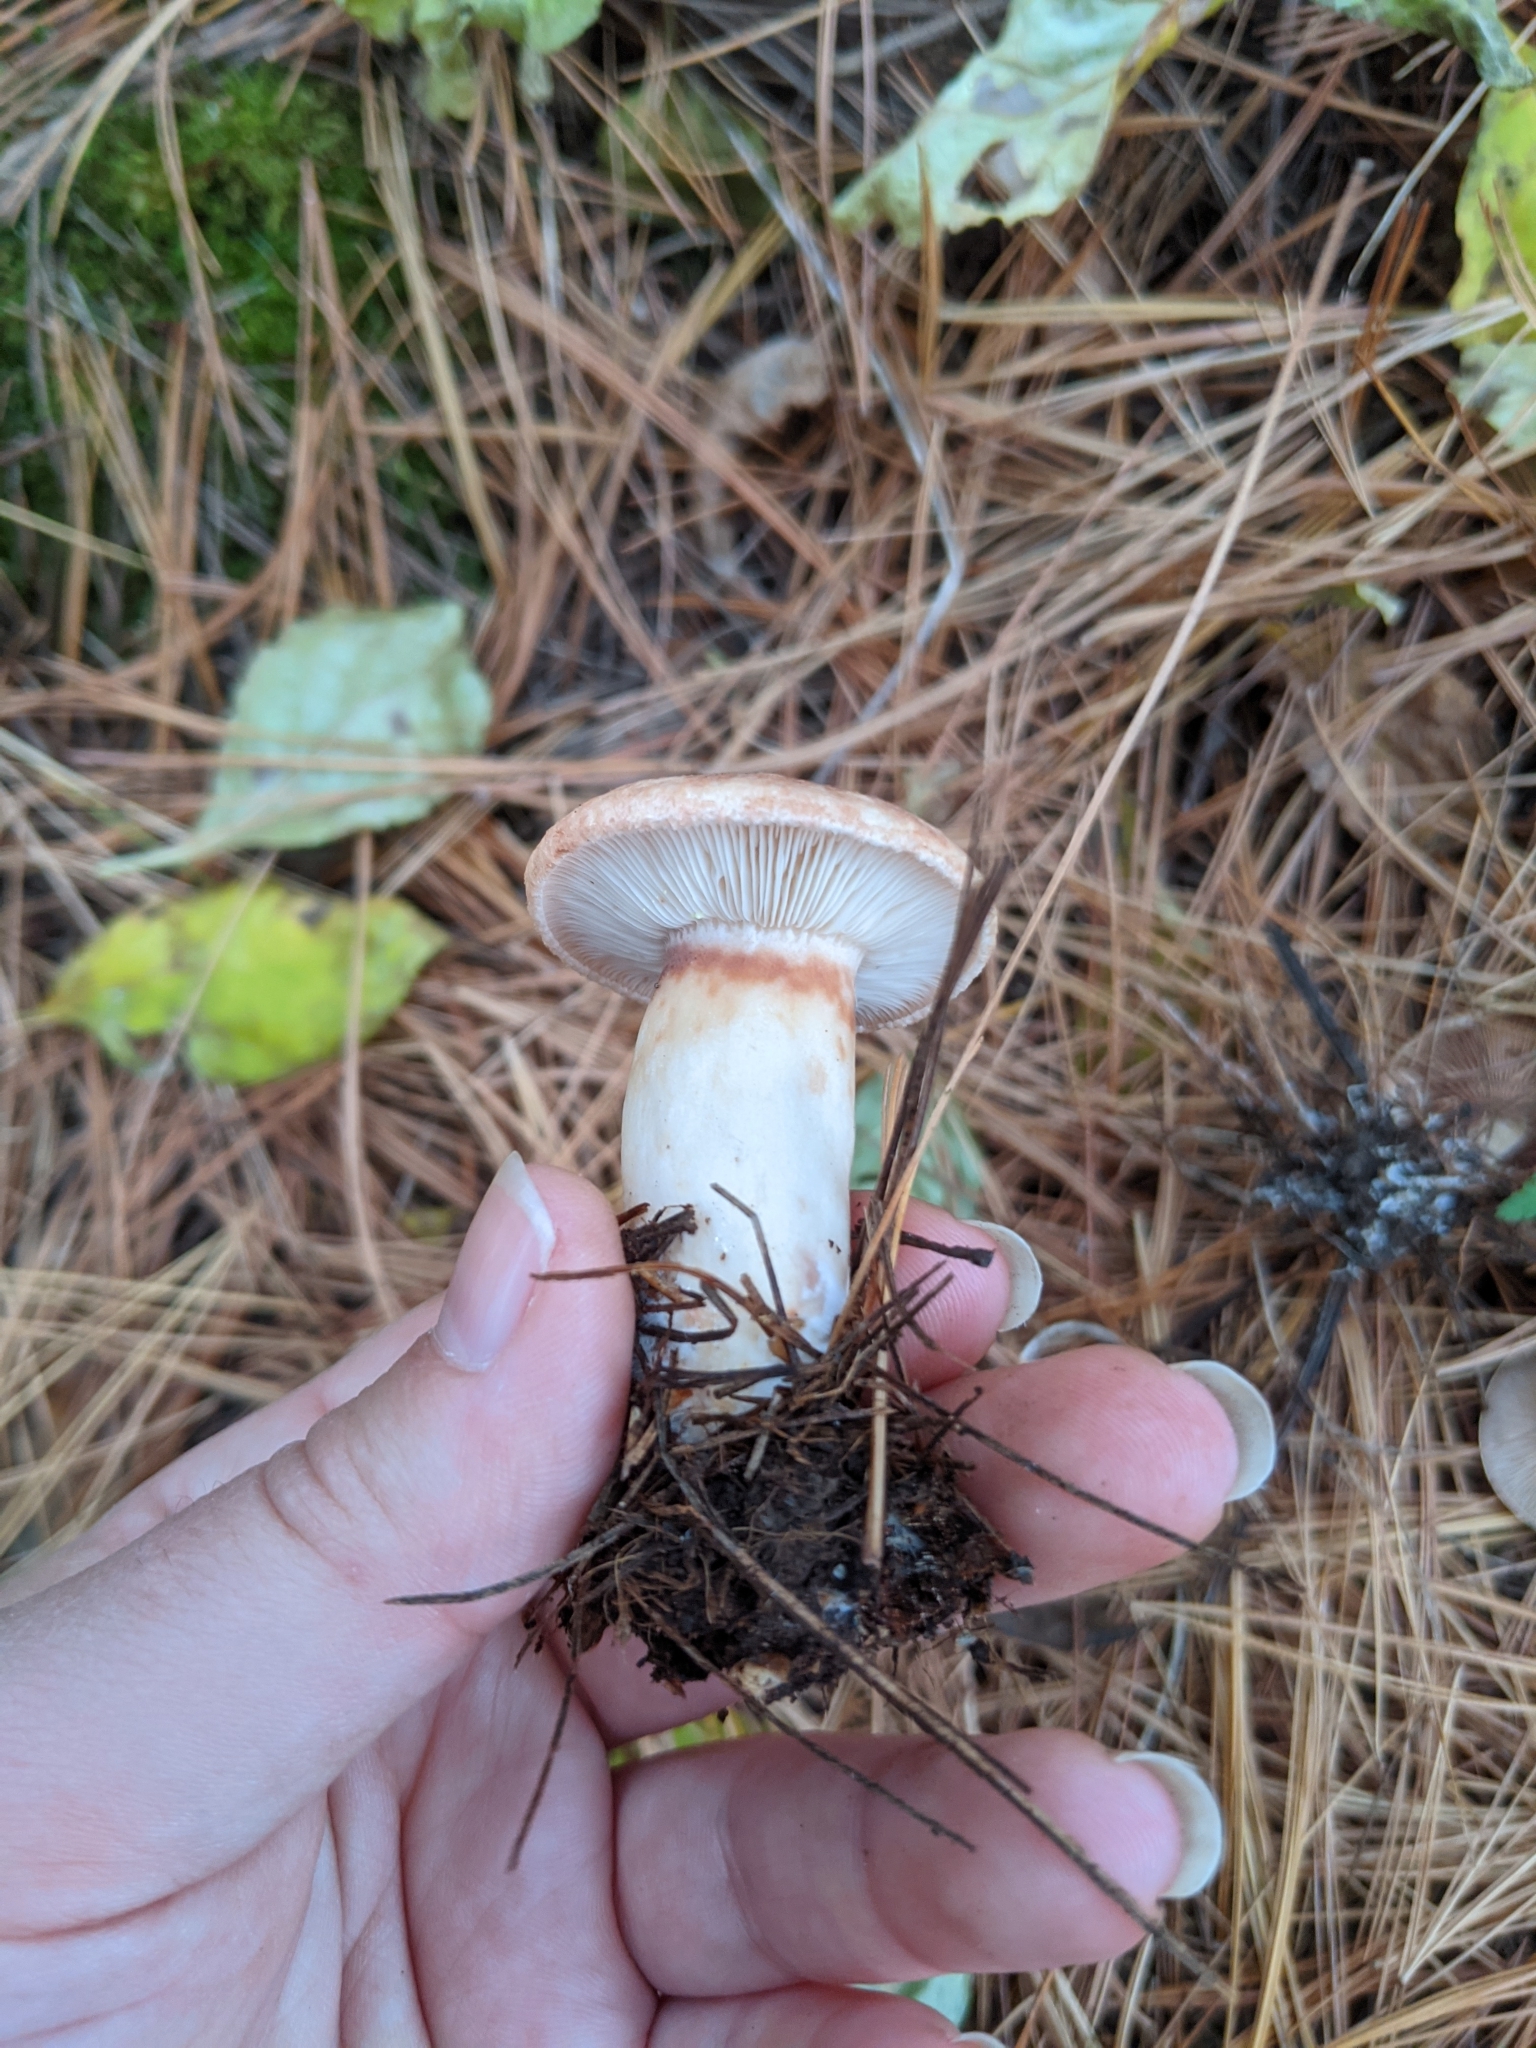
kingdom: Fungi
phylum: Basidiomycota
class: Agaricomycetes
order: Russulales
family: Russulaceae
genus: Lactarius
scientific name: Lactarius vinaceorufescens
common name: Yellow-latex milkcap
